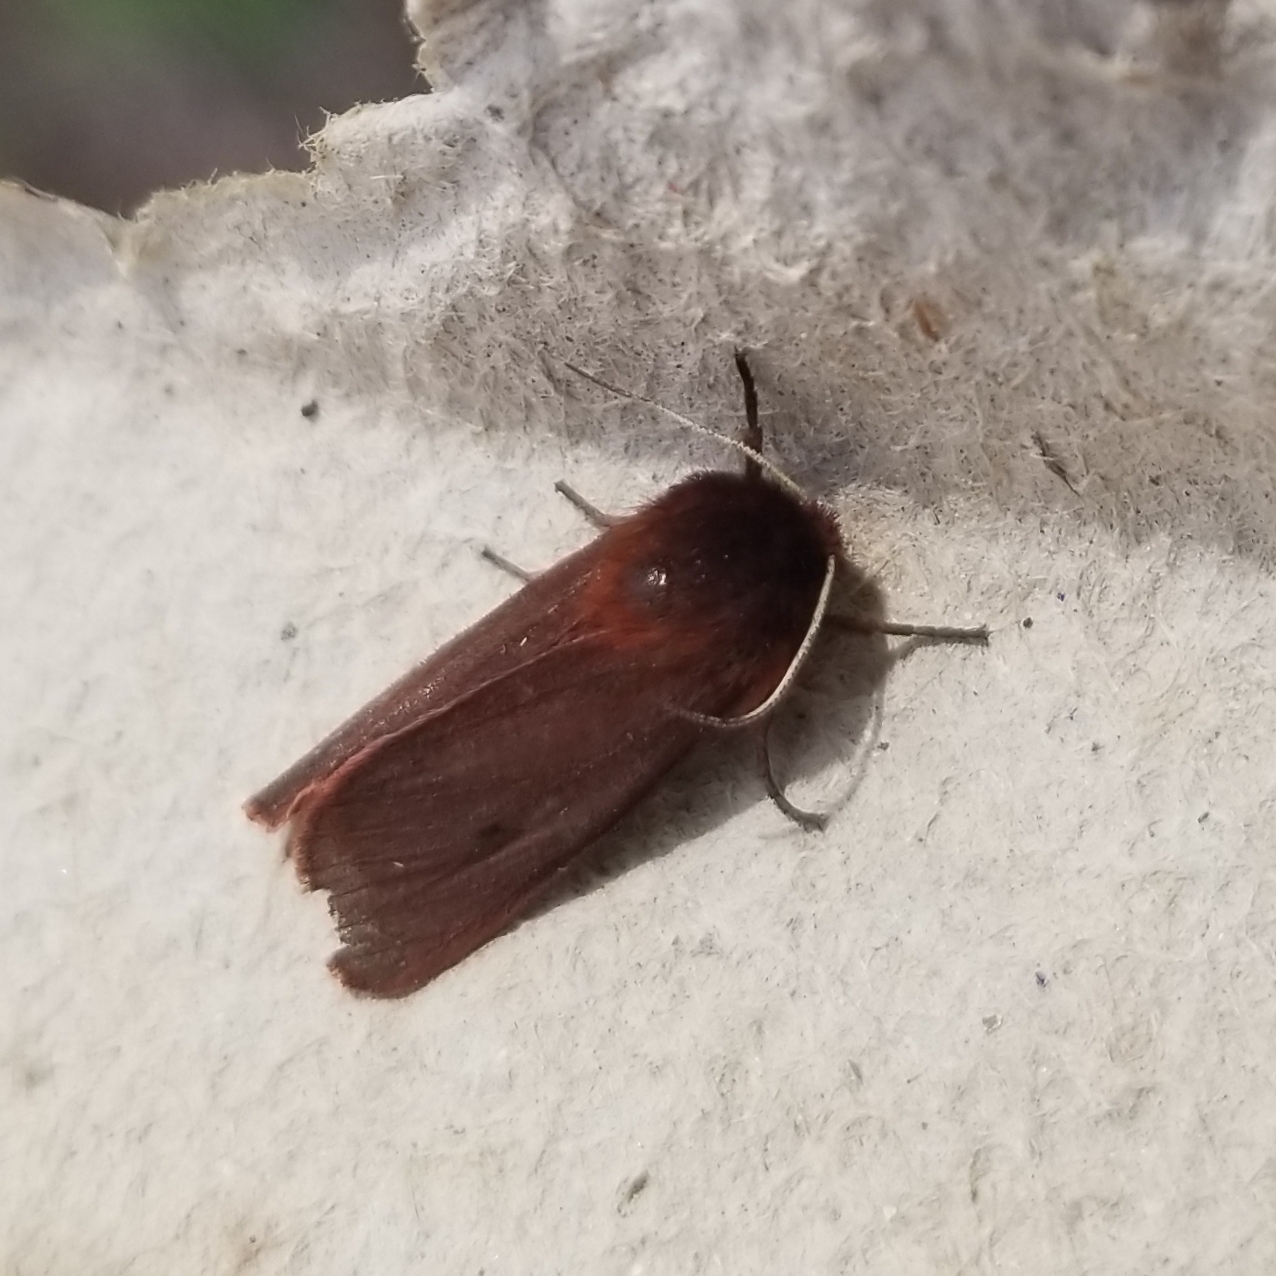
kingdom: Animalia
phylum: Arthropoda
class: Insecta
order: Lepidoptera
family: Erebidae
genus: Phragmatobia
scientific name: Phragmatobia fuliginosa
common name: Ruby tiger
